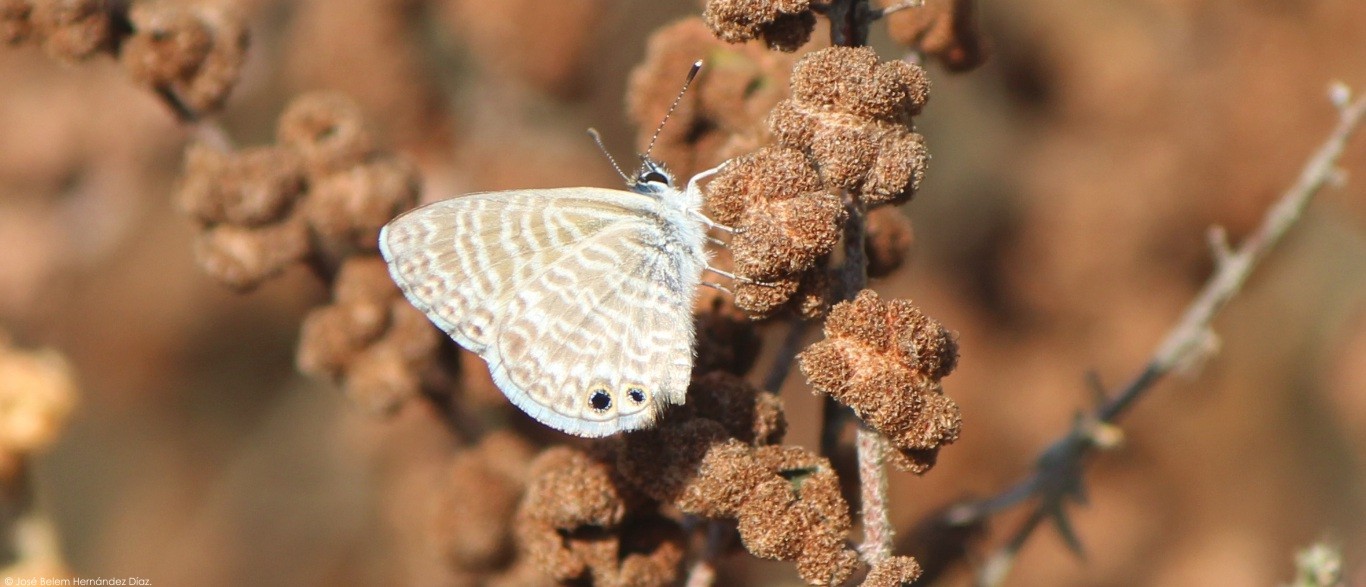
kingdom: Animalia
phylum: Arthropoda
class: Insecta
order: Lepidoptera
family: Lycaenidae
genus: Leptotes
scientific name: Leptotes marina
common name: Marine blue
